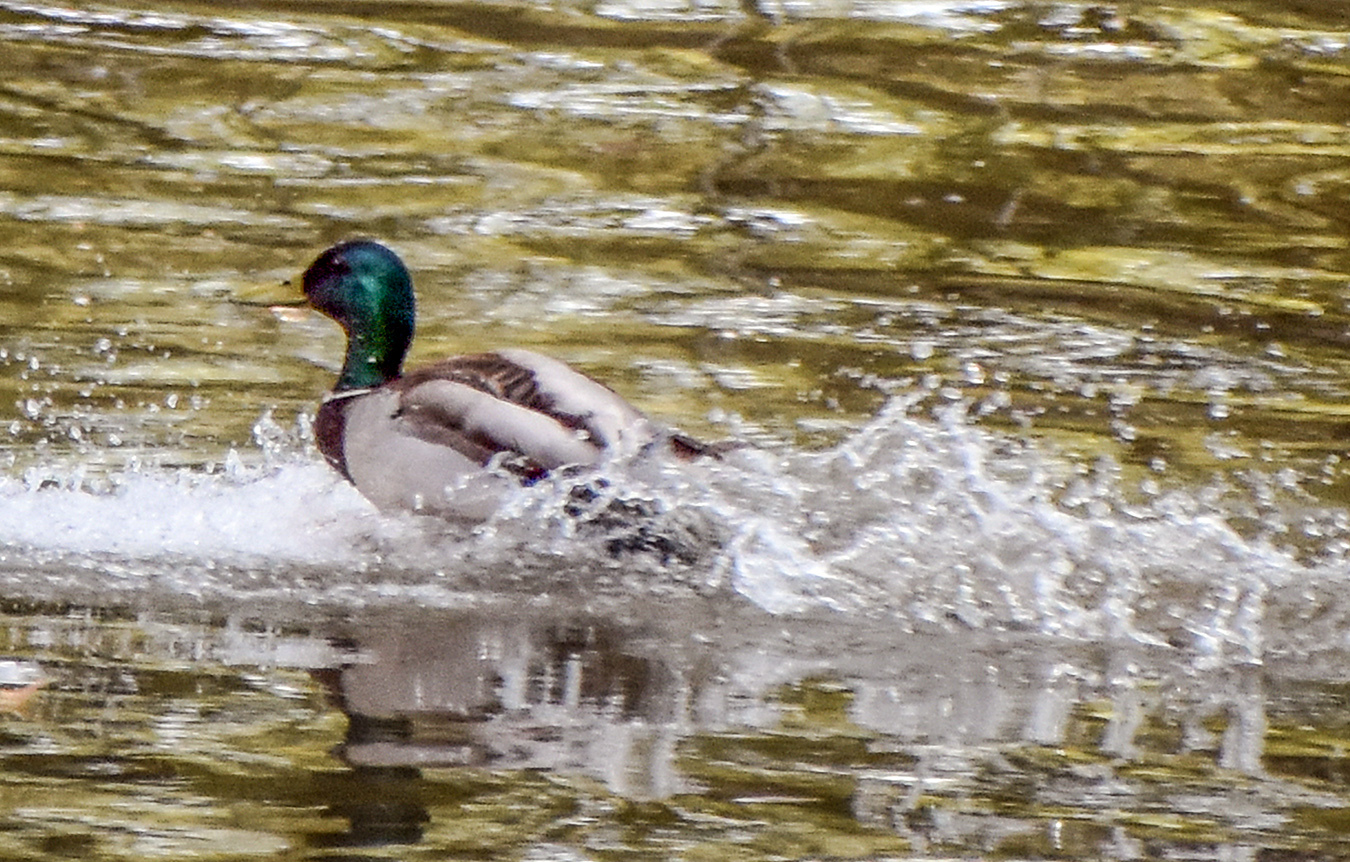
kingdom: Animalia
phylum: Chordata
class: Aves
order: Anseriformes
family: Anatidae
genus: Anas
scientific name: Anas platyrhynchos
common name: Mallard
